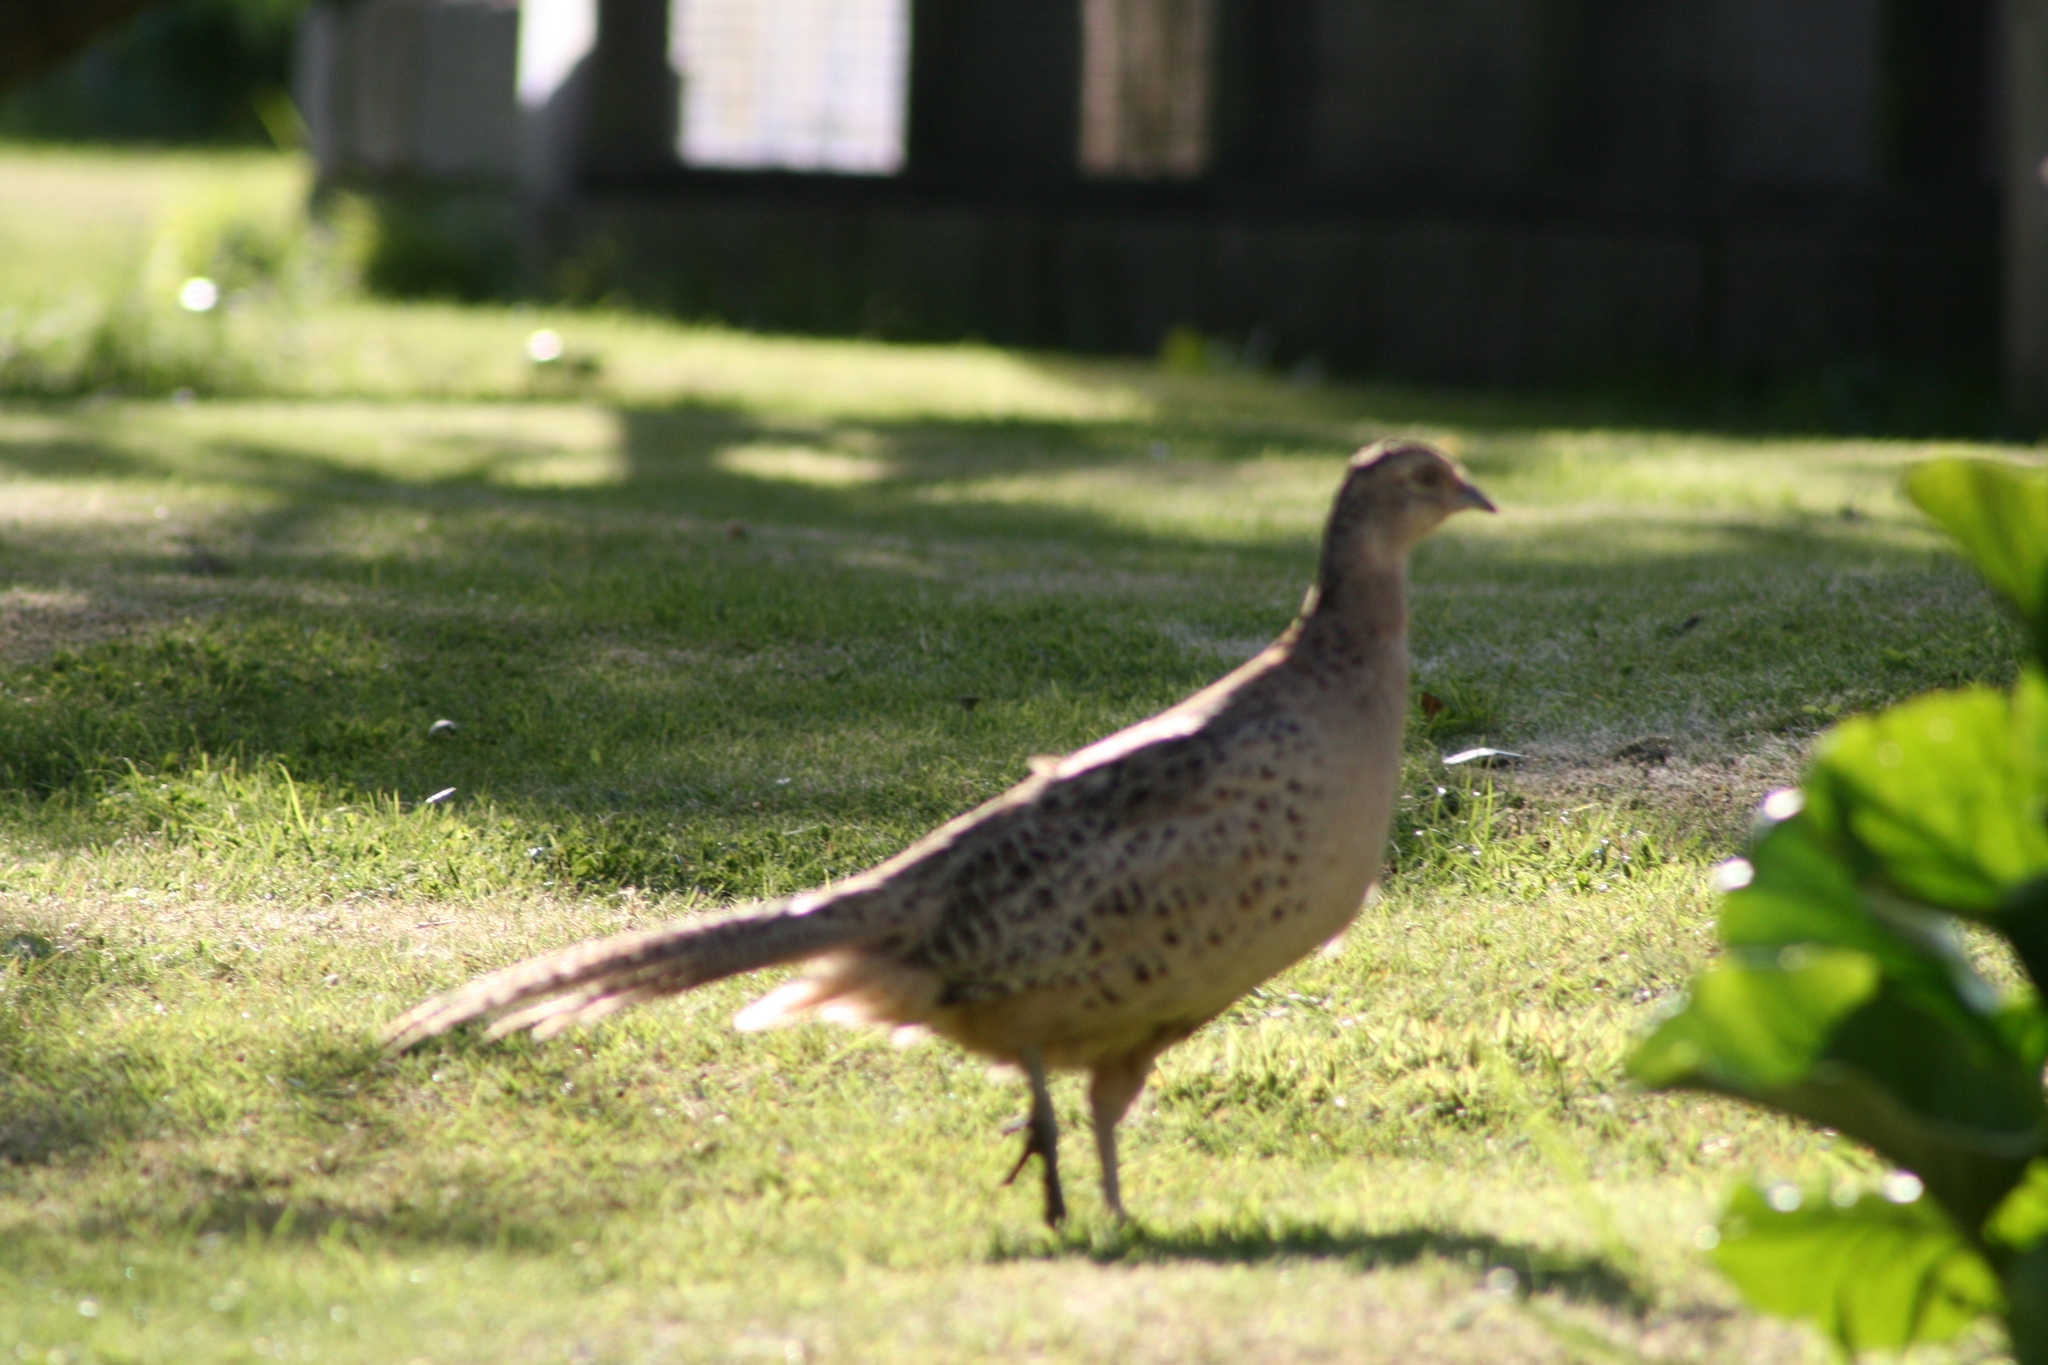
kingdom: Animalia
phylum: Chordata
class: Aves
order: Galliformes
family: Phasianidae
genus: Phasianus
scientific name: Phasianus colchicus
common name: Common pheasant
